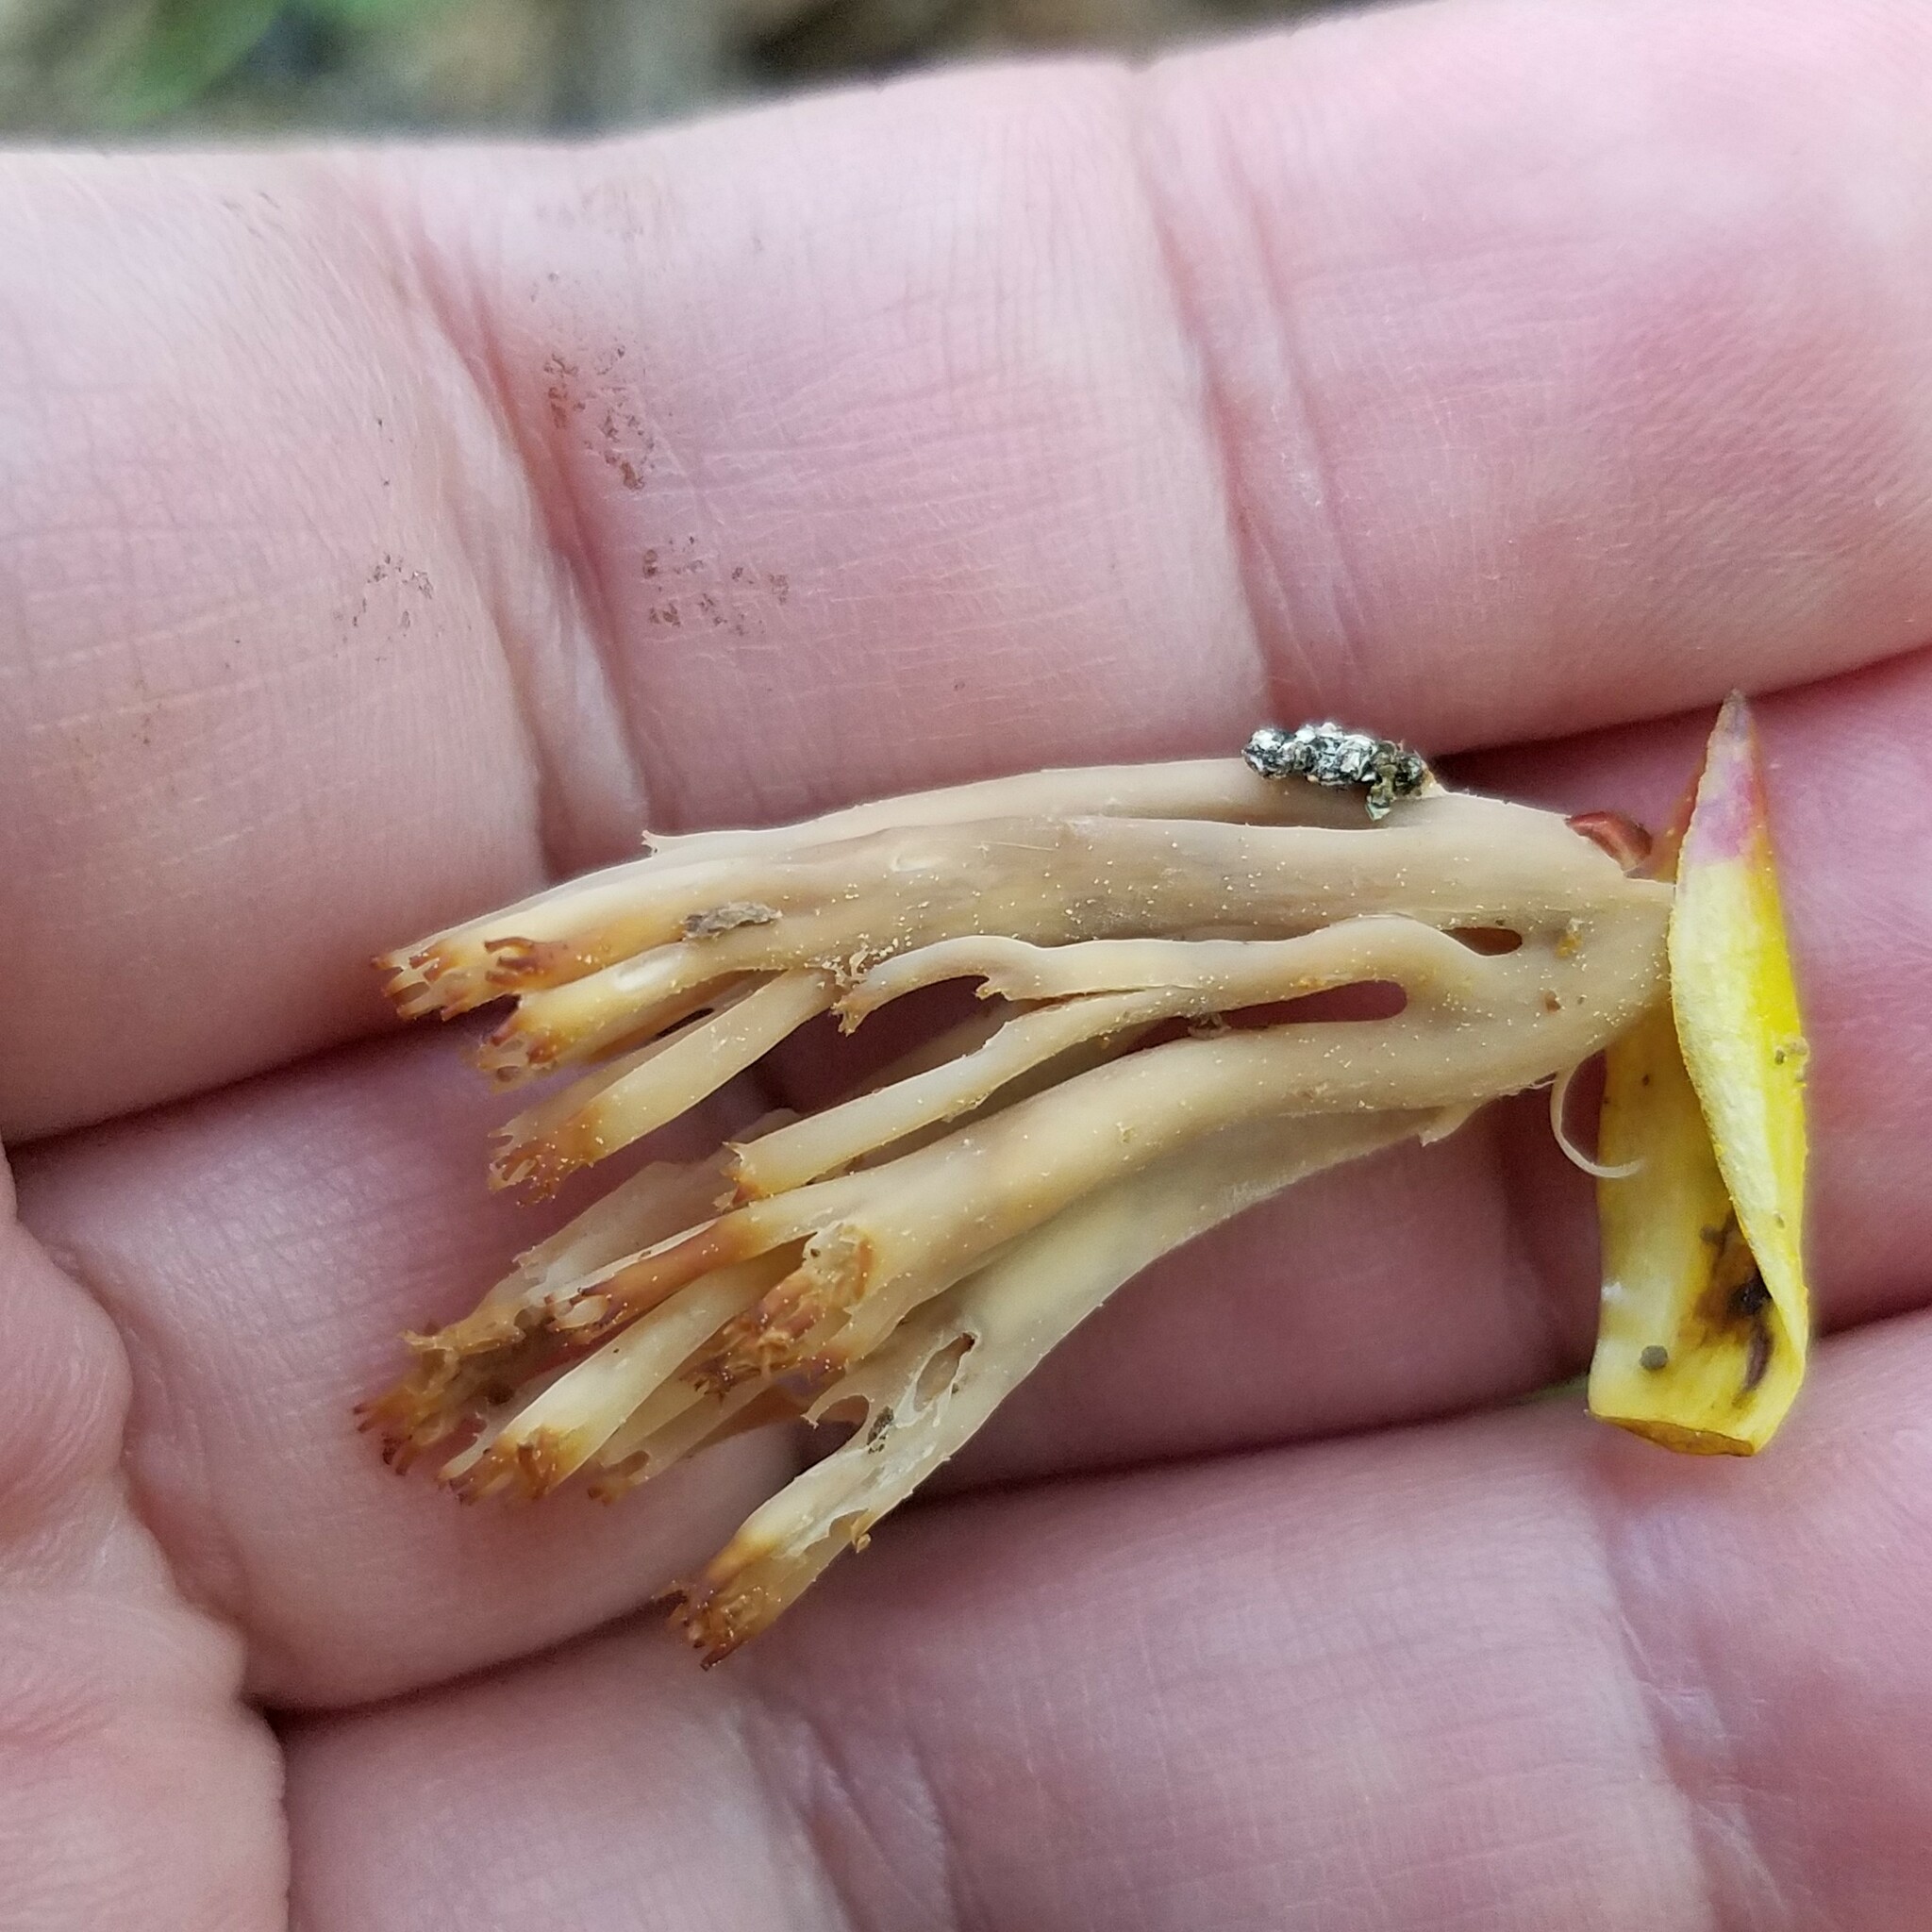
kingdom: Fungi
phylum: Basidiomycota
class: Agaricomycetes
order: Russulales
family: Auriscalpiaceae
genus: Artomyces
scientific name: Artomyces pyxidatus
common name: Crown-tipped coral fungus
